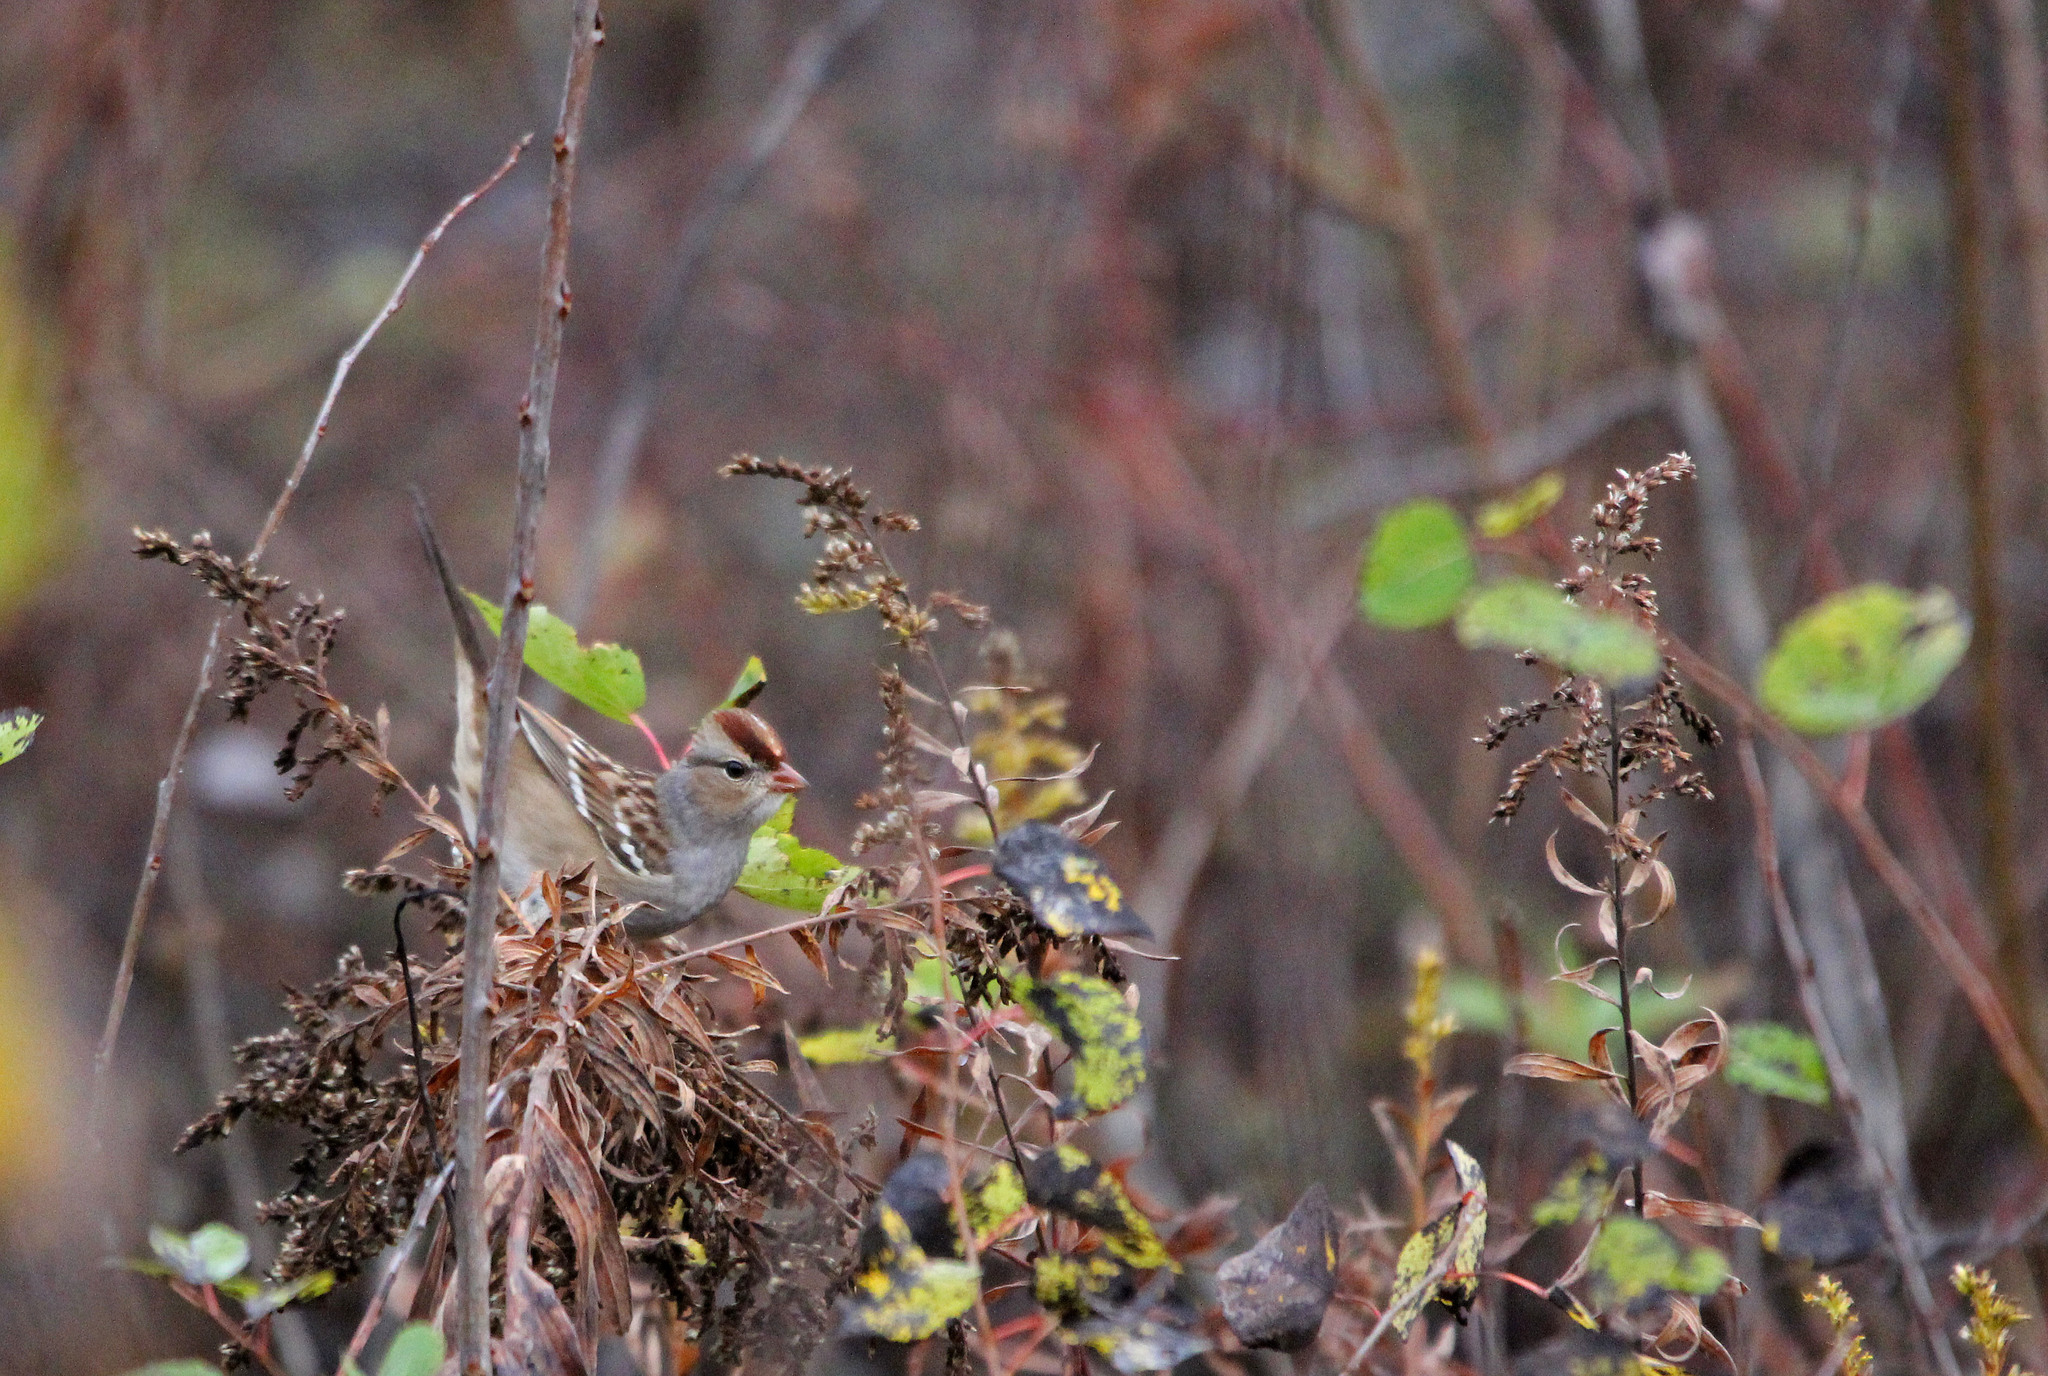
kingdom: Animalia
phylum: Chordata
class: Aves
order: Passeriformes
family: Passerellidae
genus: Zonotrichia
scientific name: Zonotrichia leucophrys
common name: White-crowned sparrow
